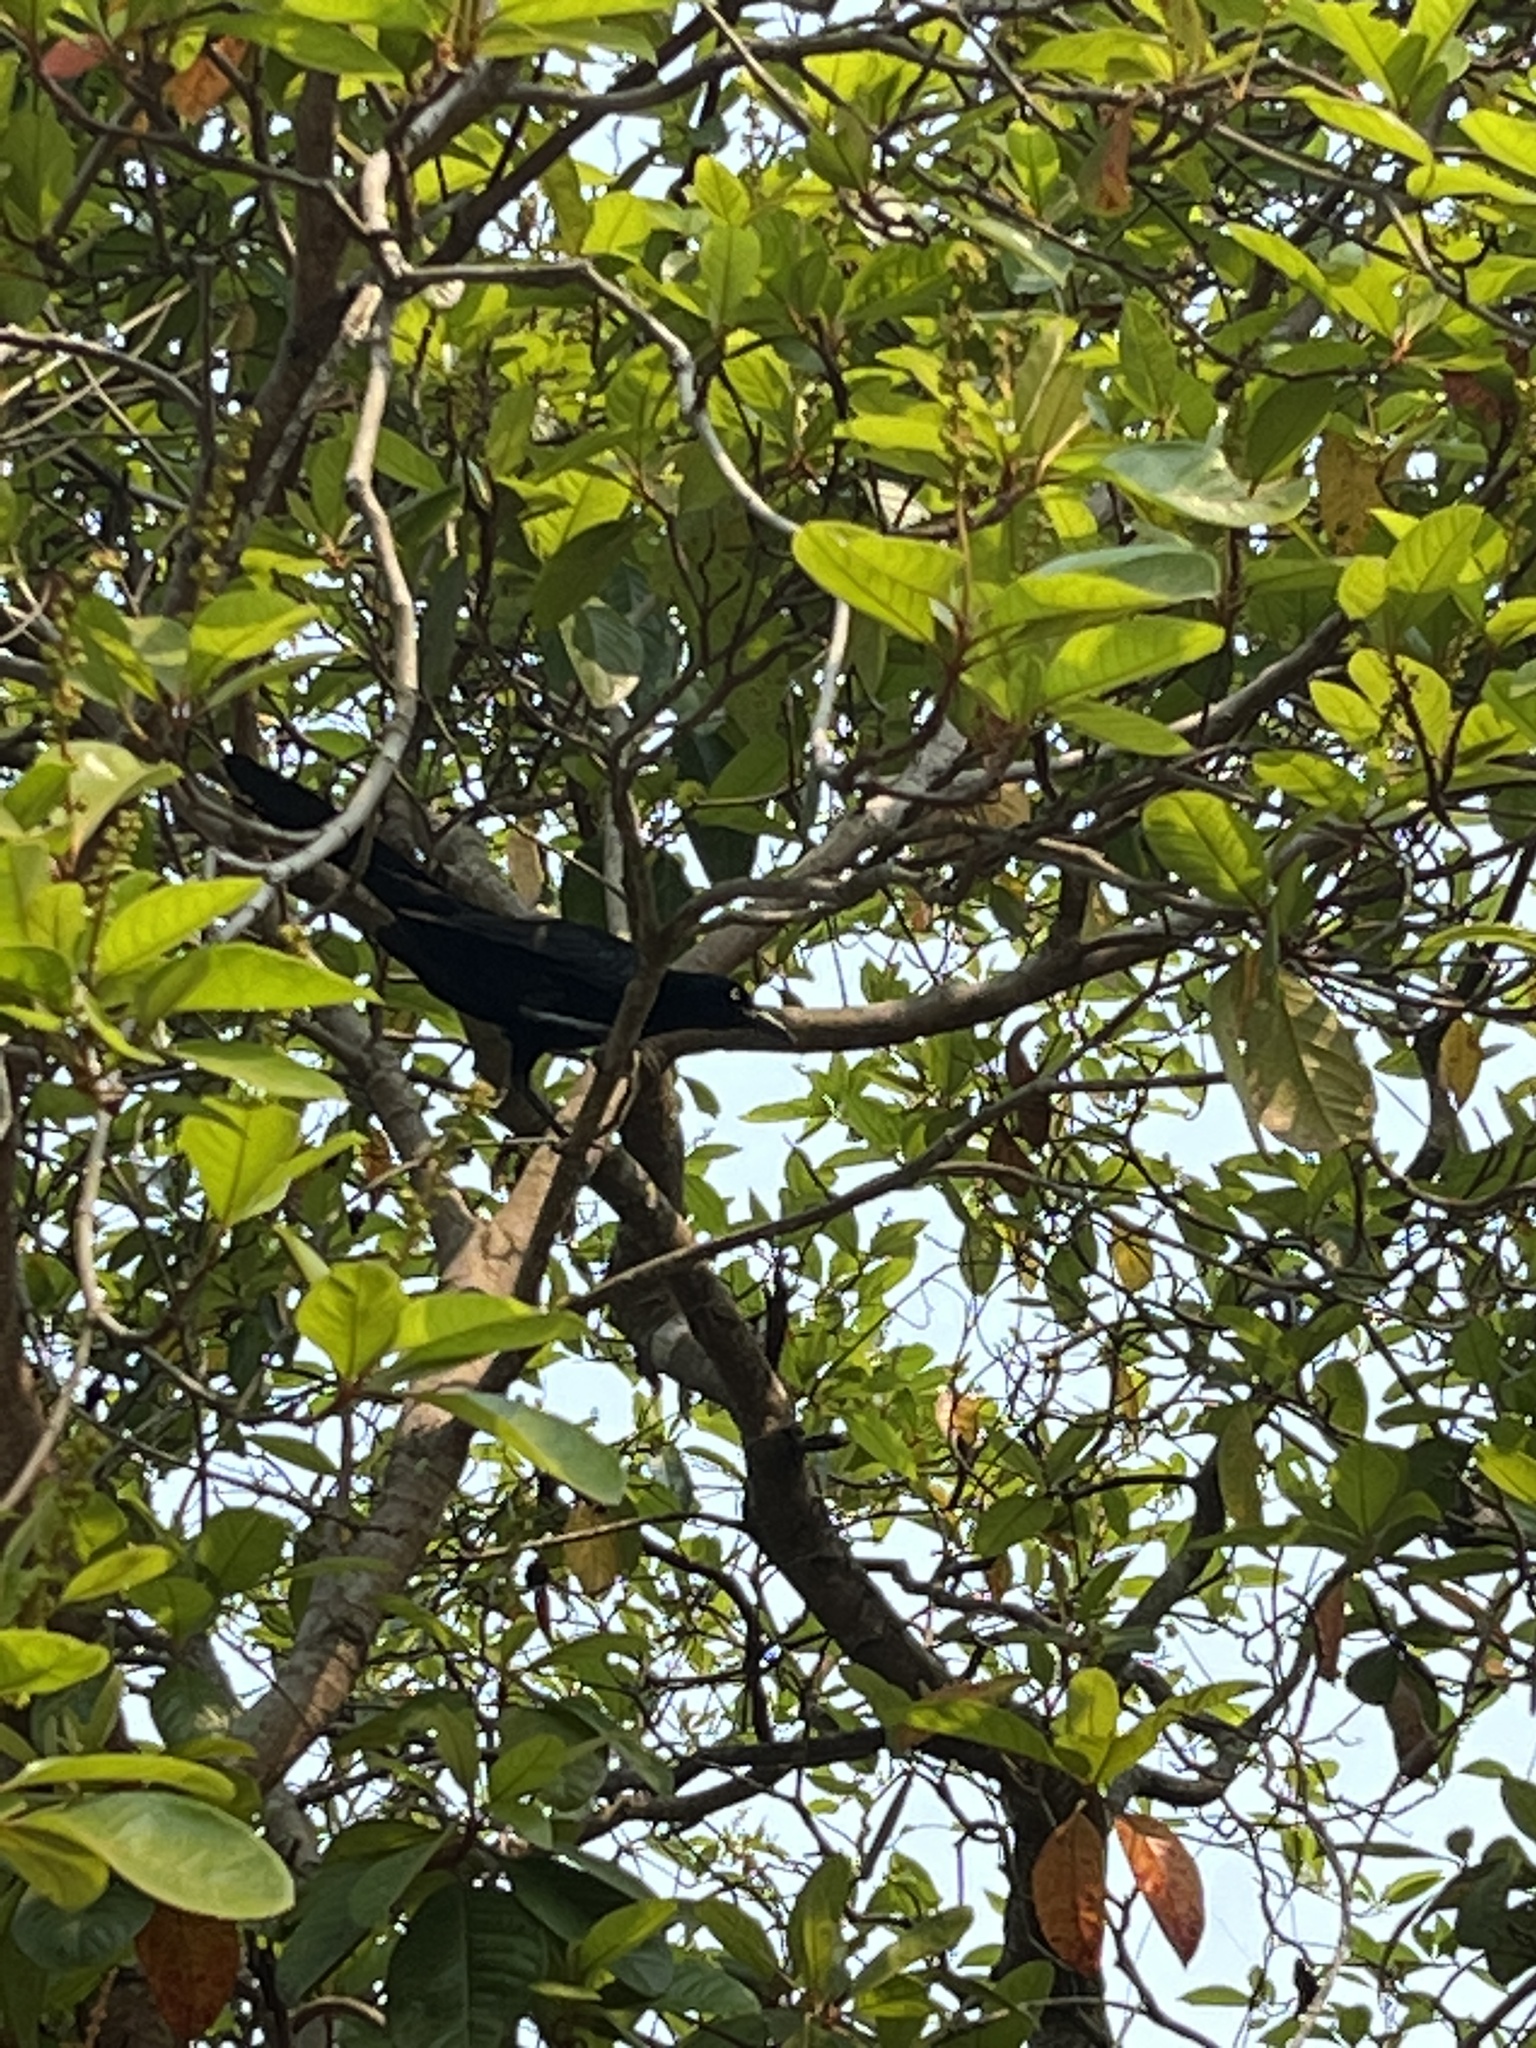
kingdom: Animalia
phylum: Chordata
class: Aves
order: Passeriformes
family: Icteridae
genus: Quiscalus
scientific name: Quiscalus mexicanus
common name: Great-tailed grackle
